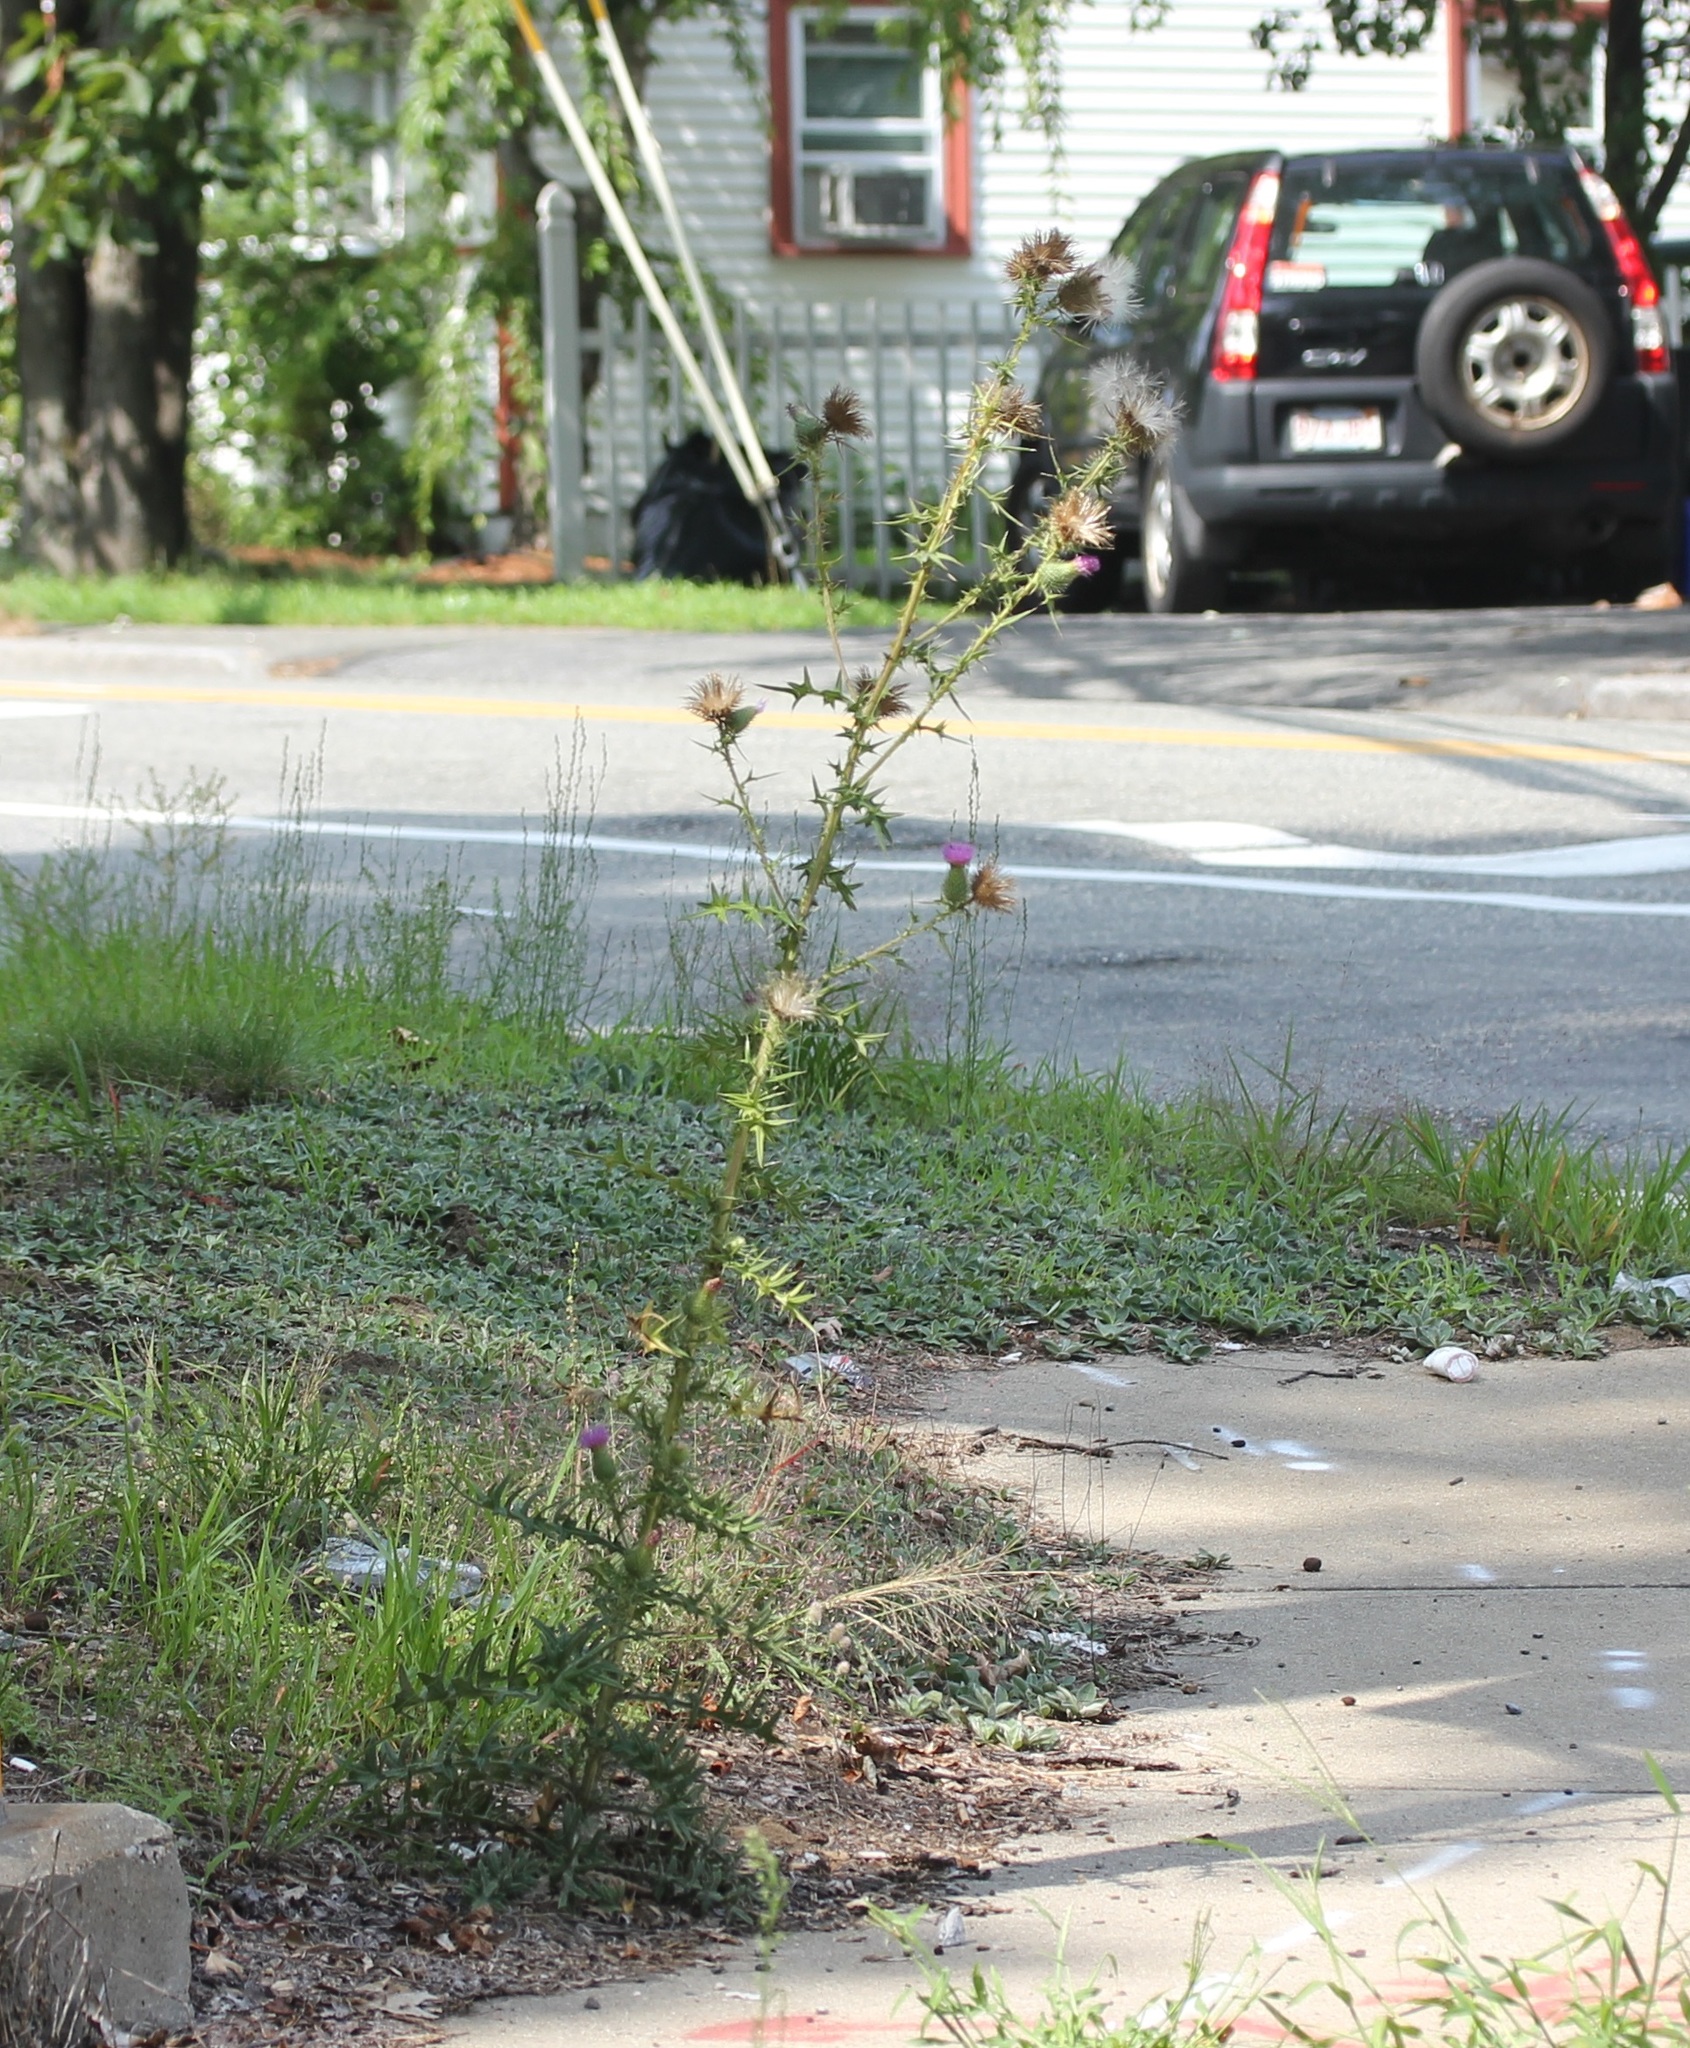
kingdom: Plantae
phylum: Tracheophyta
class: Magnoliopsida
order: Asterales
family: Asteraceae
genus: Cirsium
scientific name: Cirsium vulgare
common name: Bull thistle
